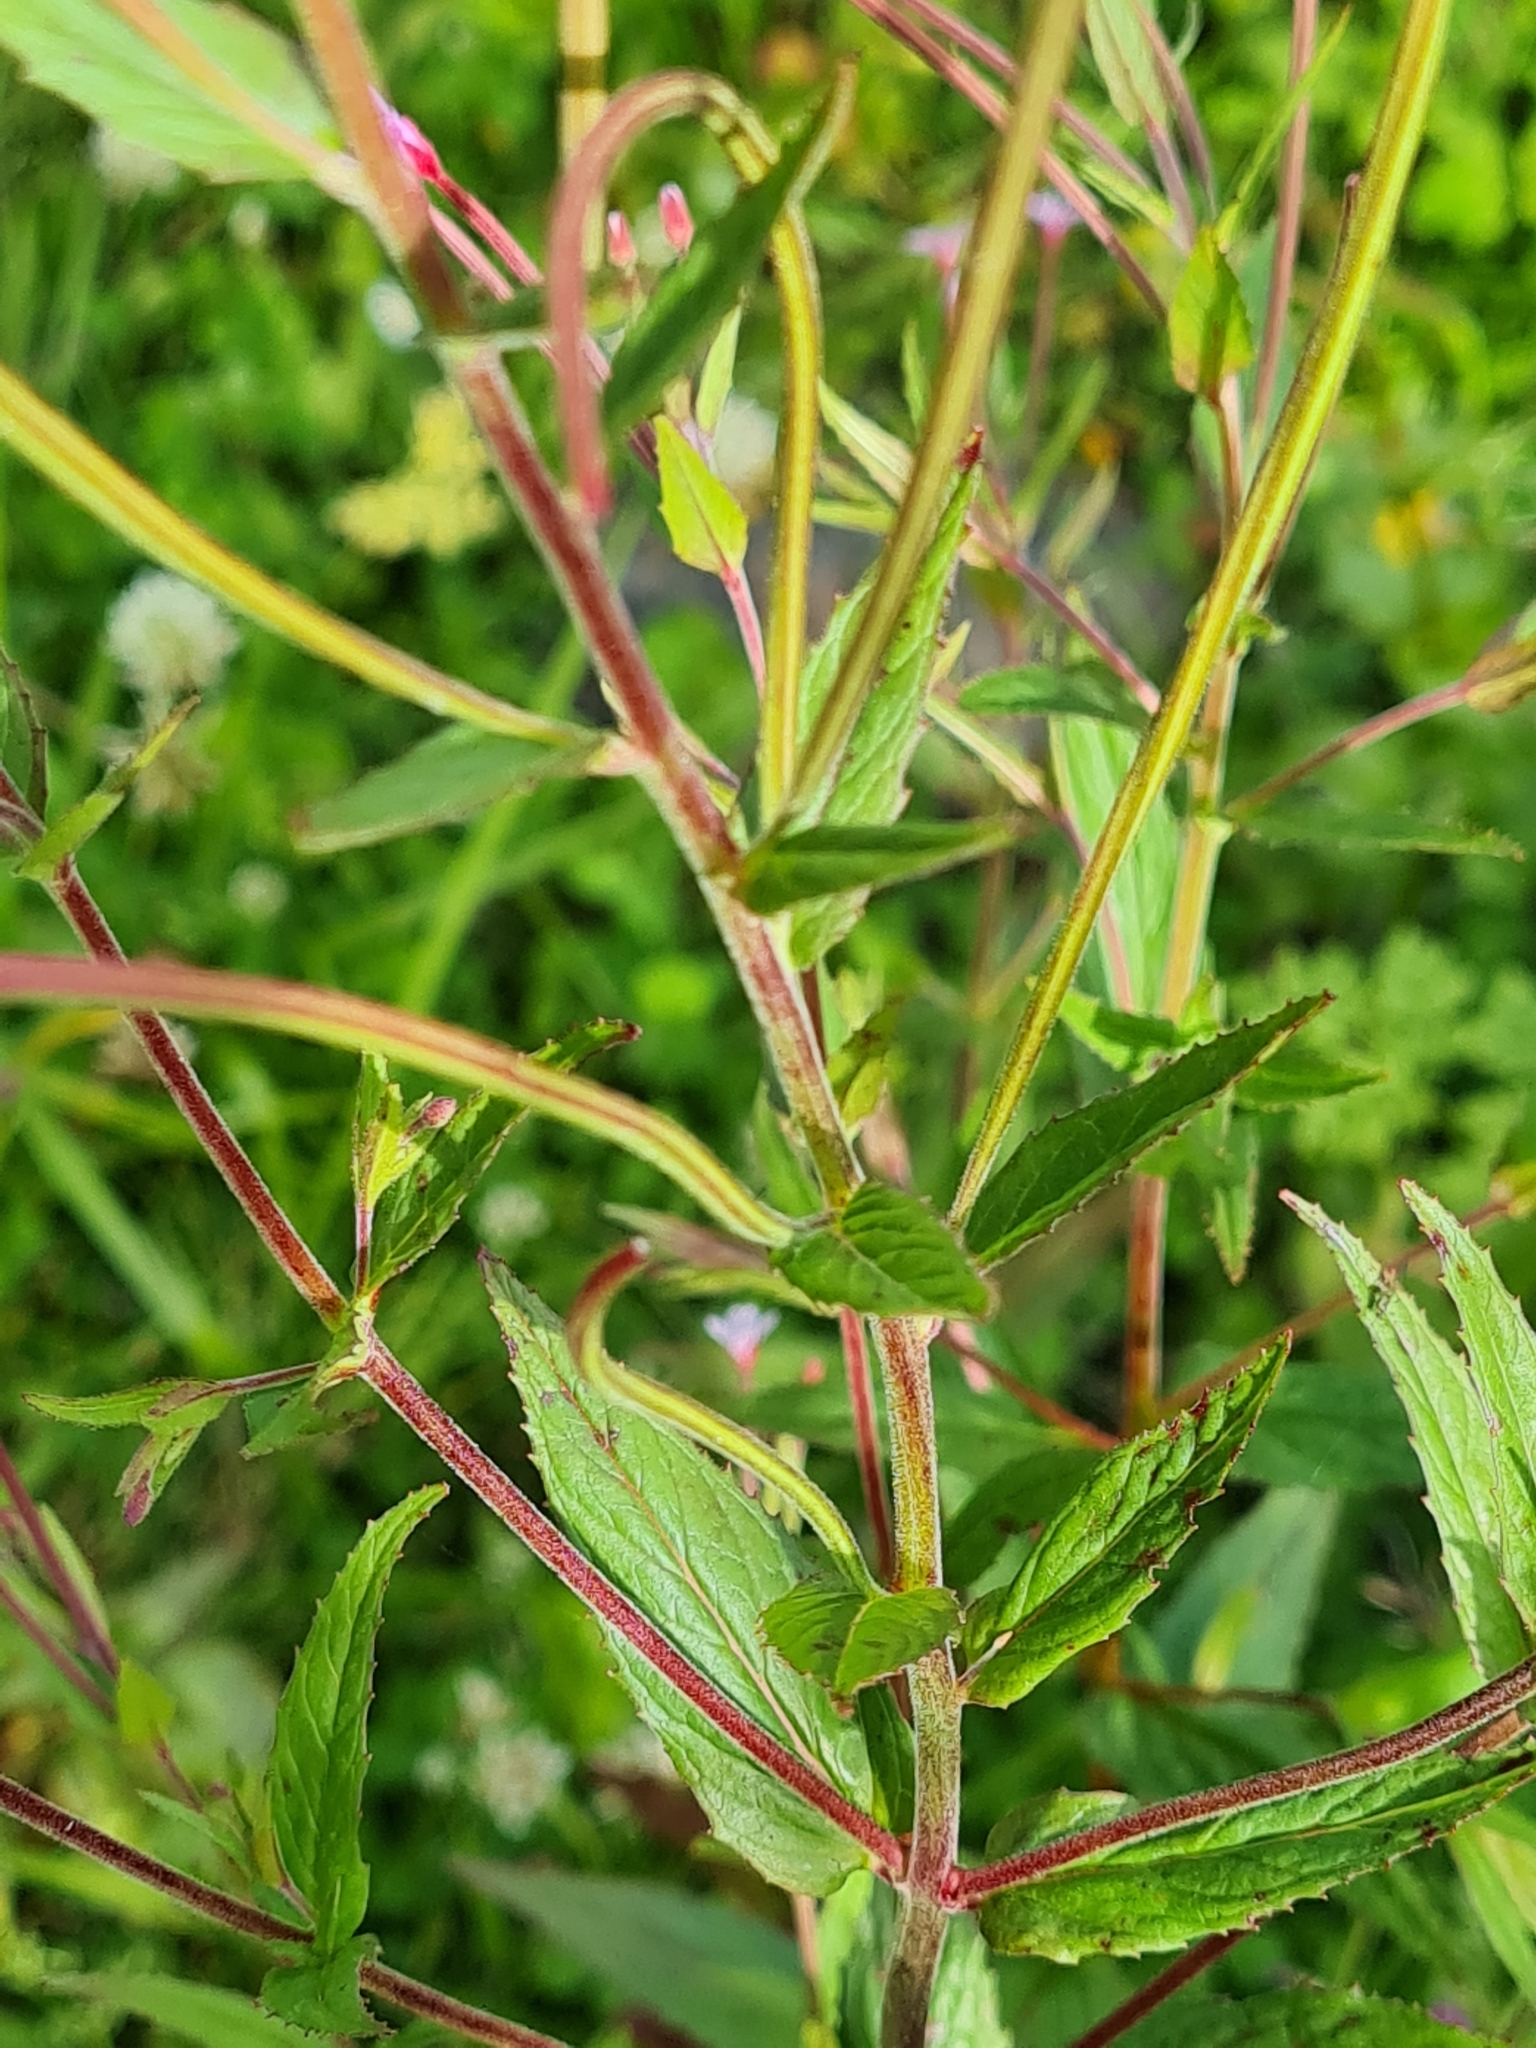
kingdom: Plantae
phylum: Tracheophyta
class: Magnoliopsida
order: Myrtales
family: Onagraceae
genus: Epilobium
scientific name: Epilobium ciliatum
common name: American willowherb
